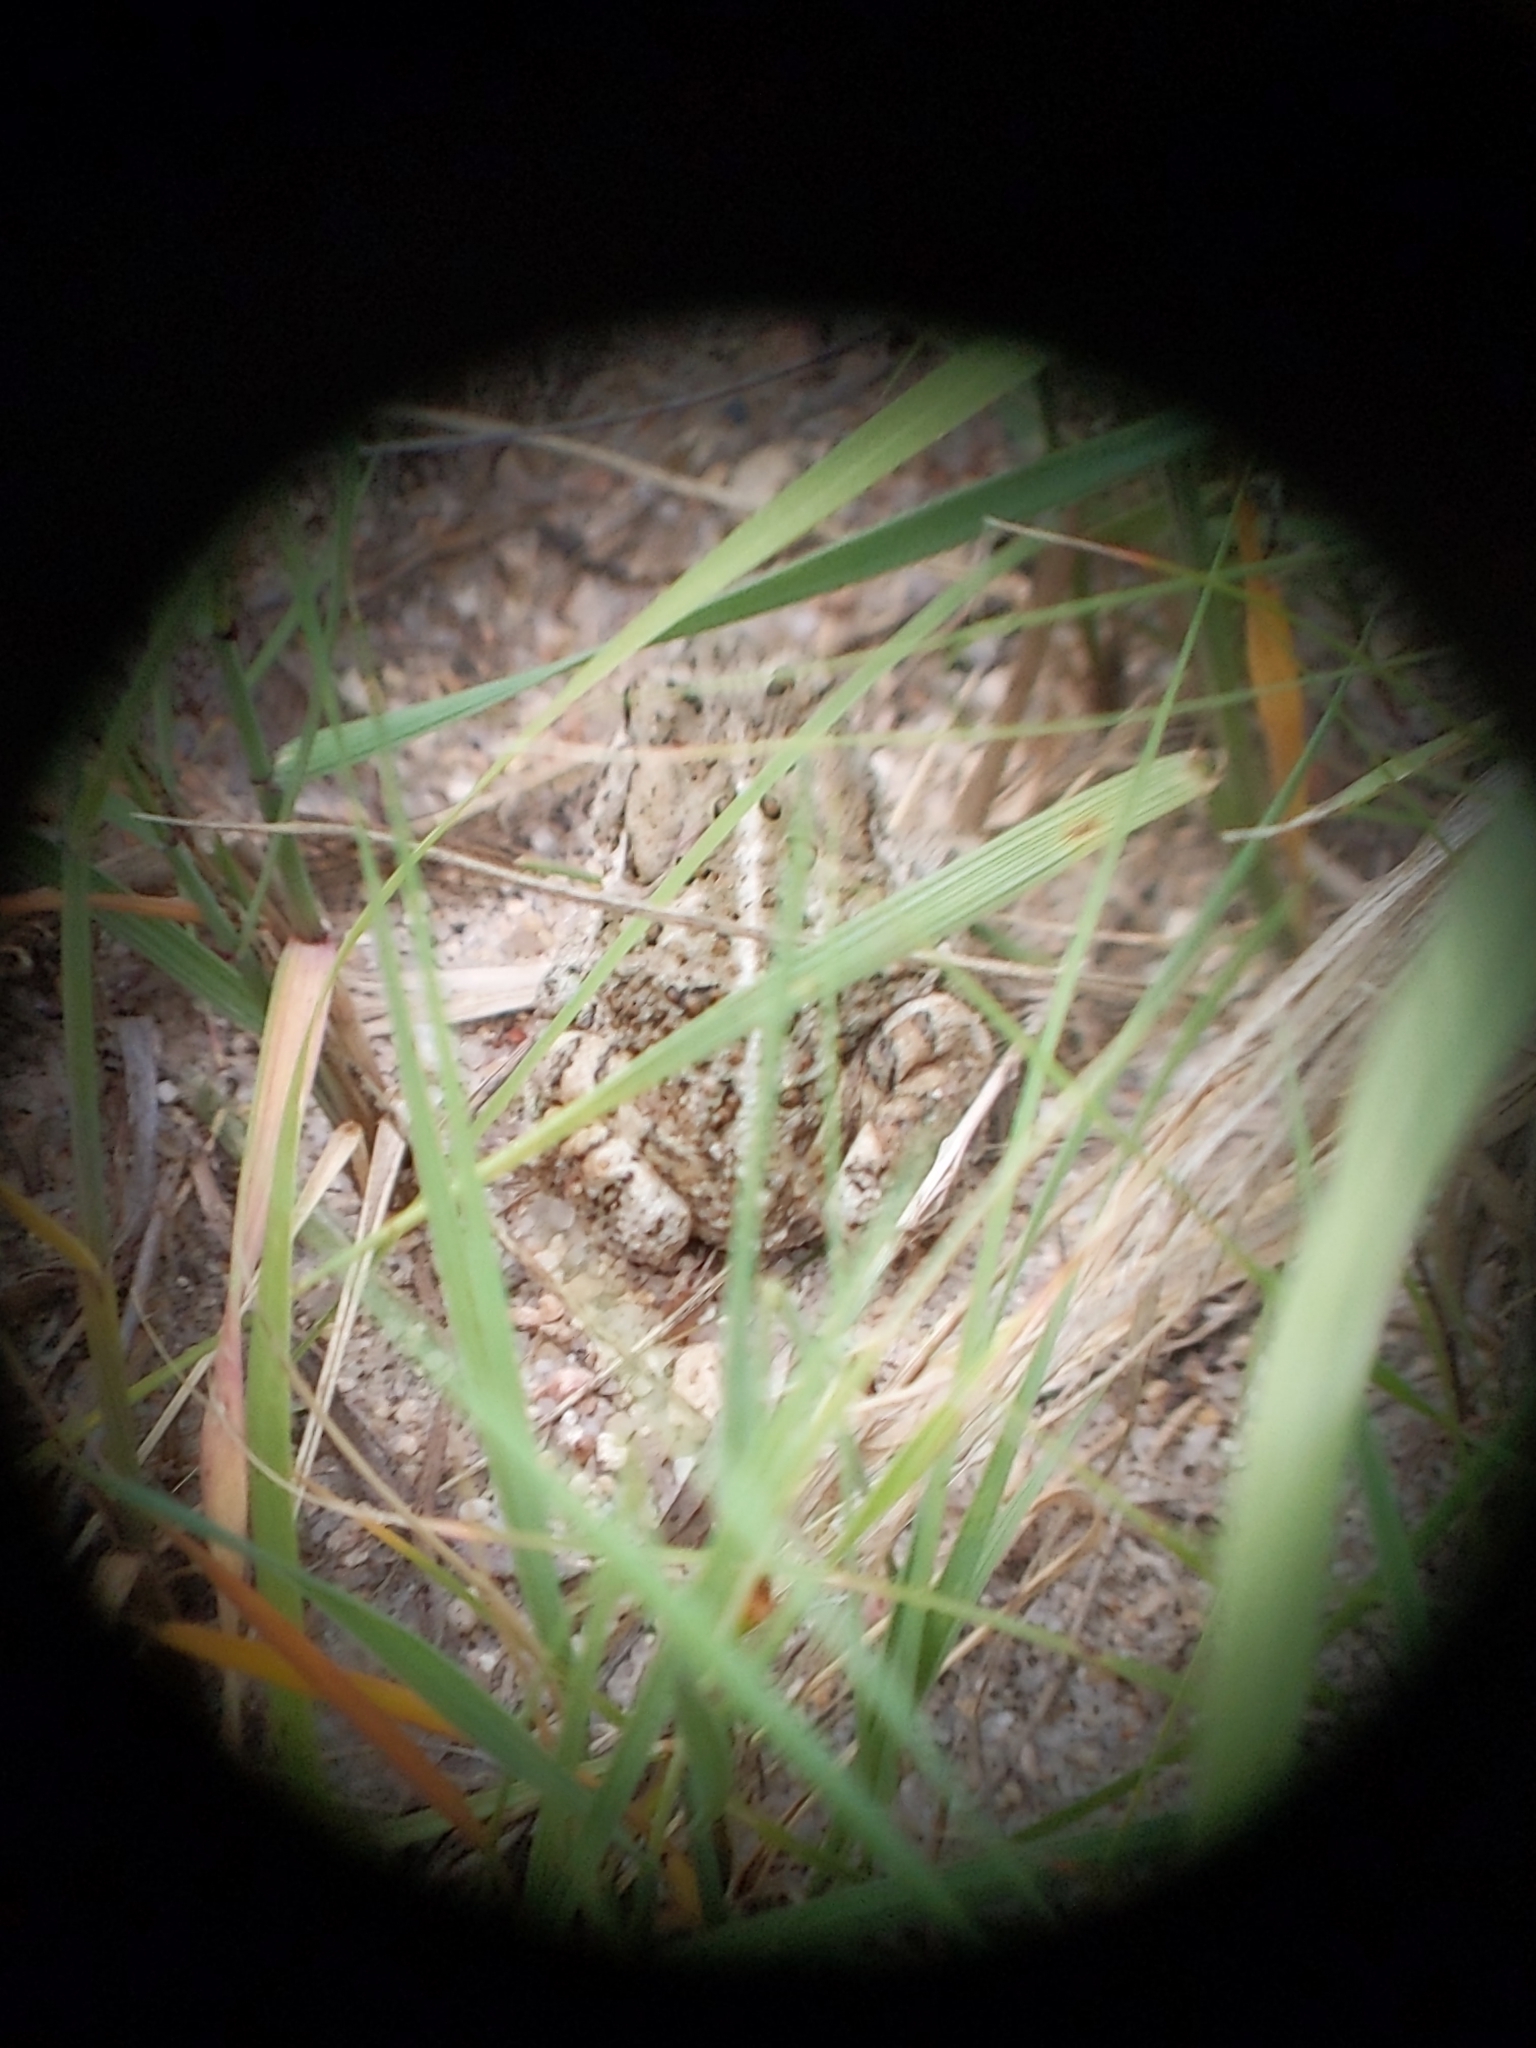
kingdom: Animalia
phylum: Chordata
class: Amphibia
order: Anura
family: Bufonidae
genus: Anaxyrus
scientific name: Anaxyrus woodhousii
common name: Woodhouse's toad
